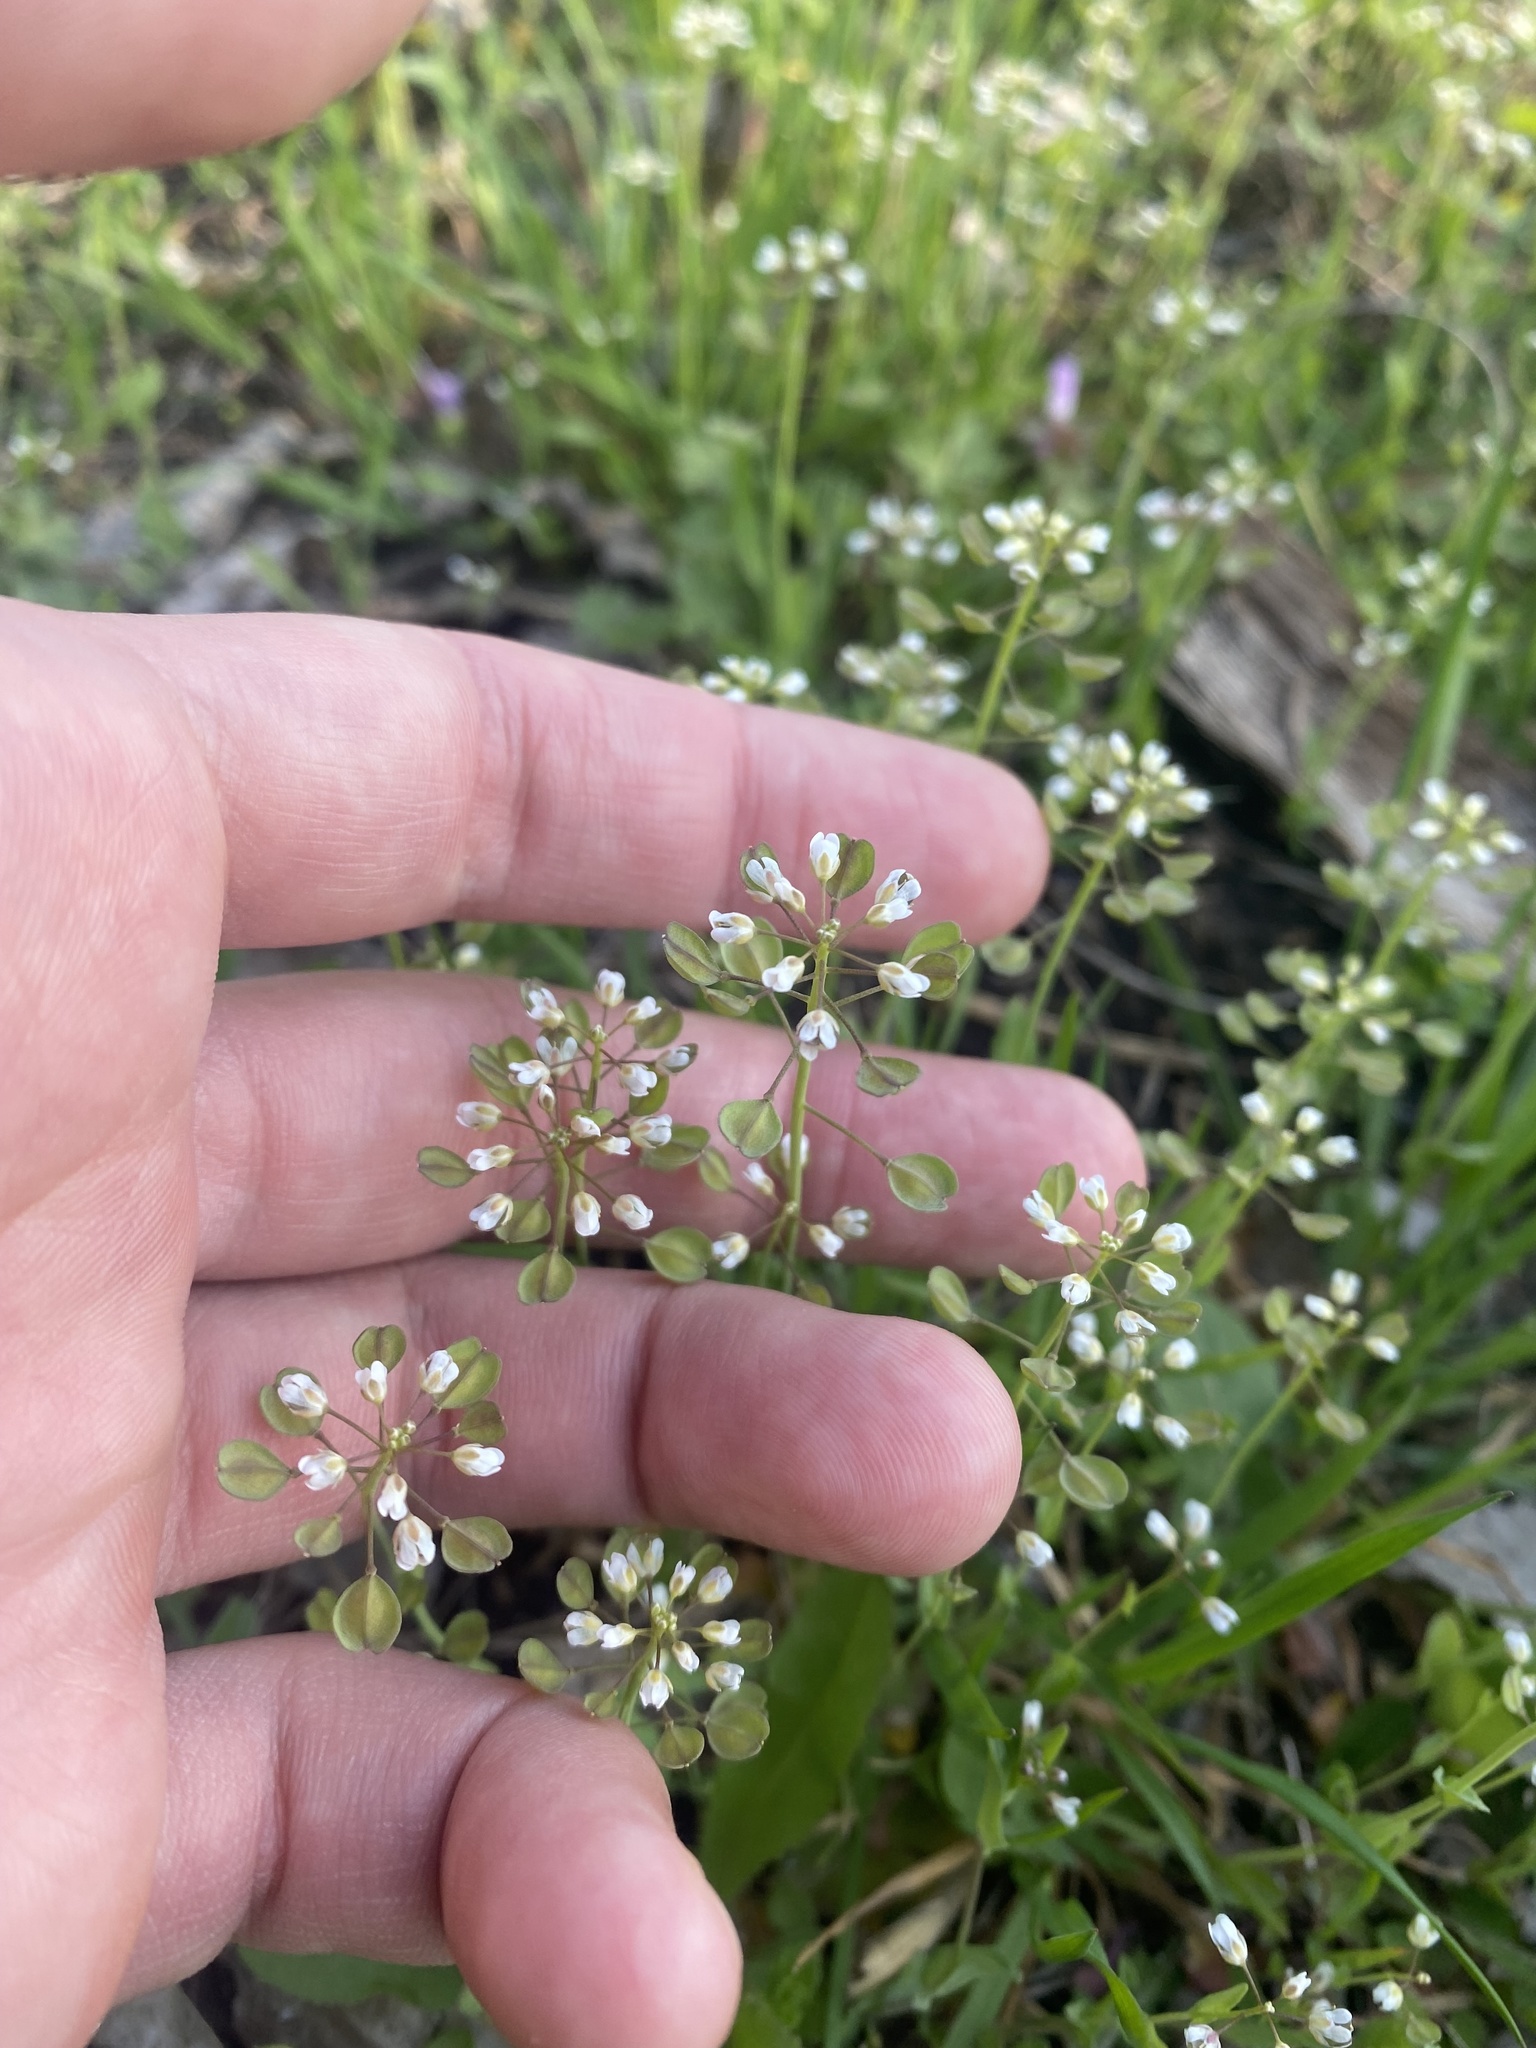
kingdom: Plantae
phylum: Tracheophyta
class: Magnoliopsida
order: Brassicales
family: Brassicaceae
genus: Noccaea
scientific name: Noccaea perfoliata
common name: Perfoliate pennycress
